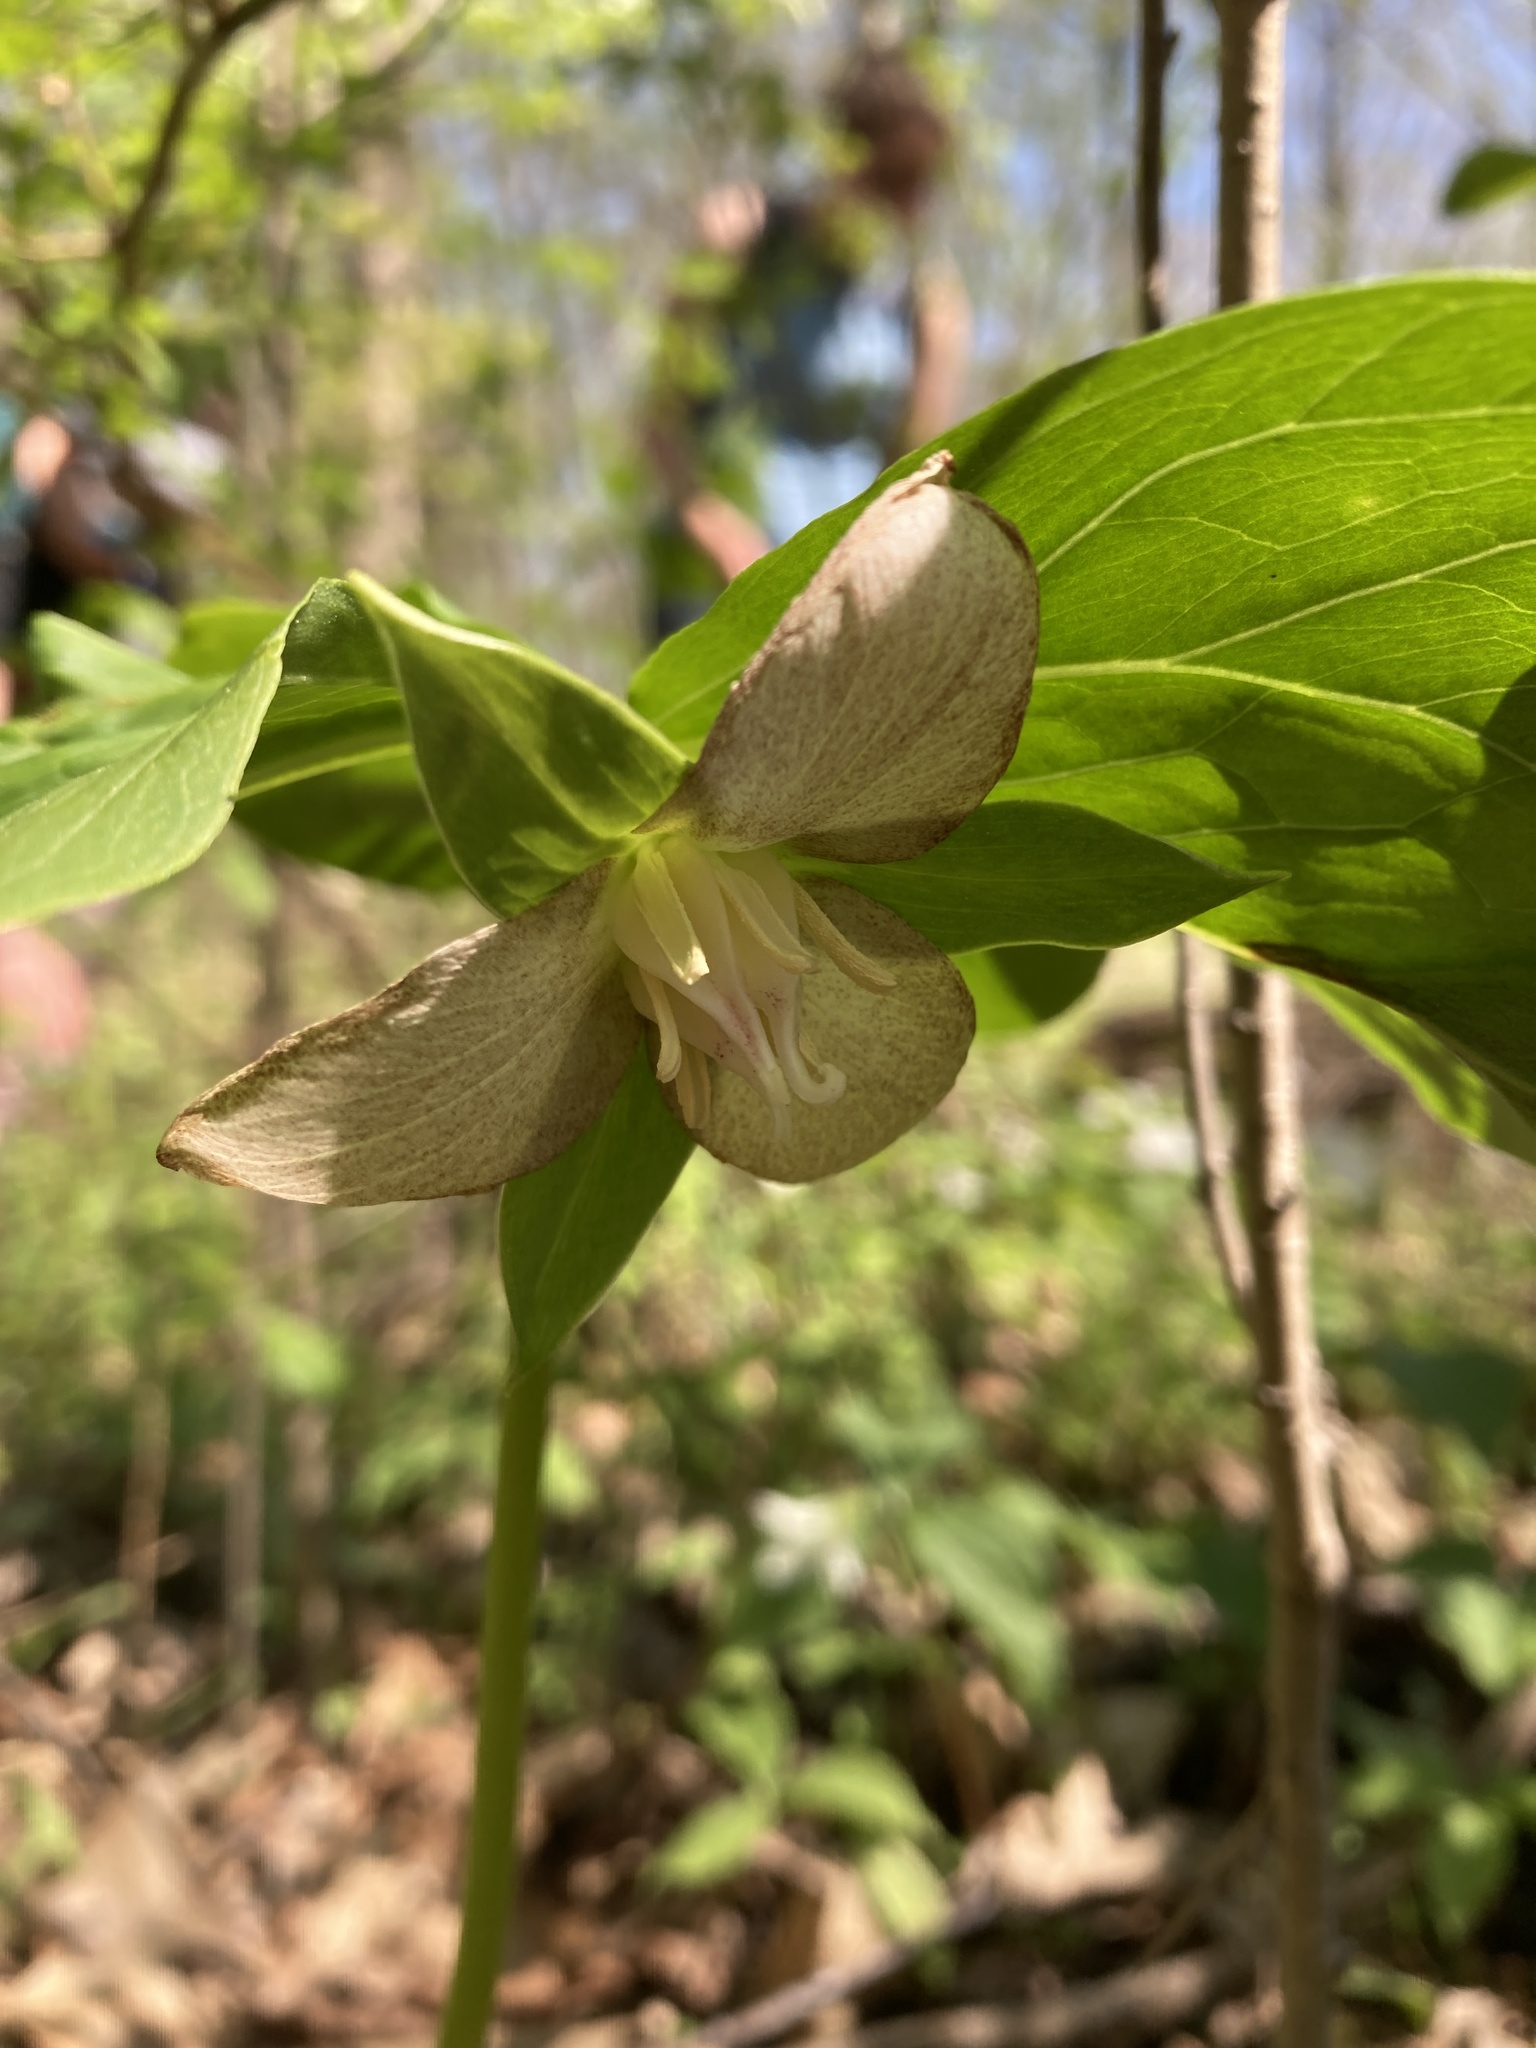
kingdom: Plantae
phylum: Tracheophyta
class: Liliopsida
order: Liliales
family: Melanthiaceae
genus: Trillium
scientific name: Trillium flexipes
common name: Drooping trillium
